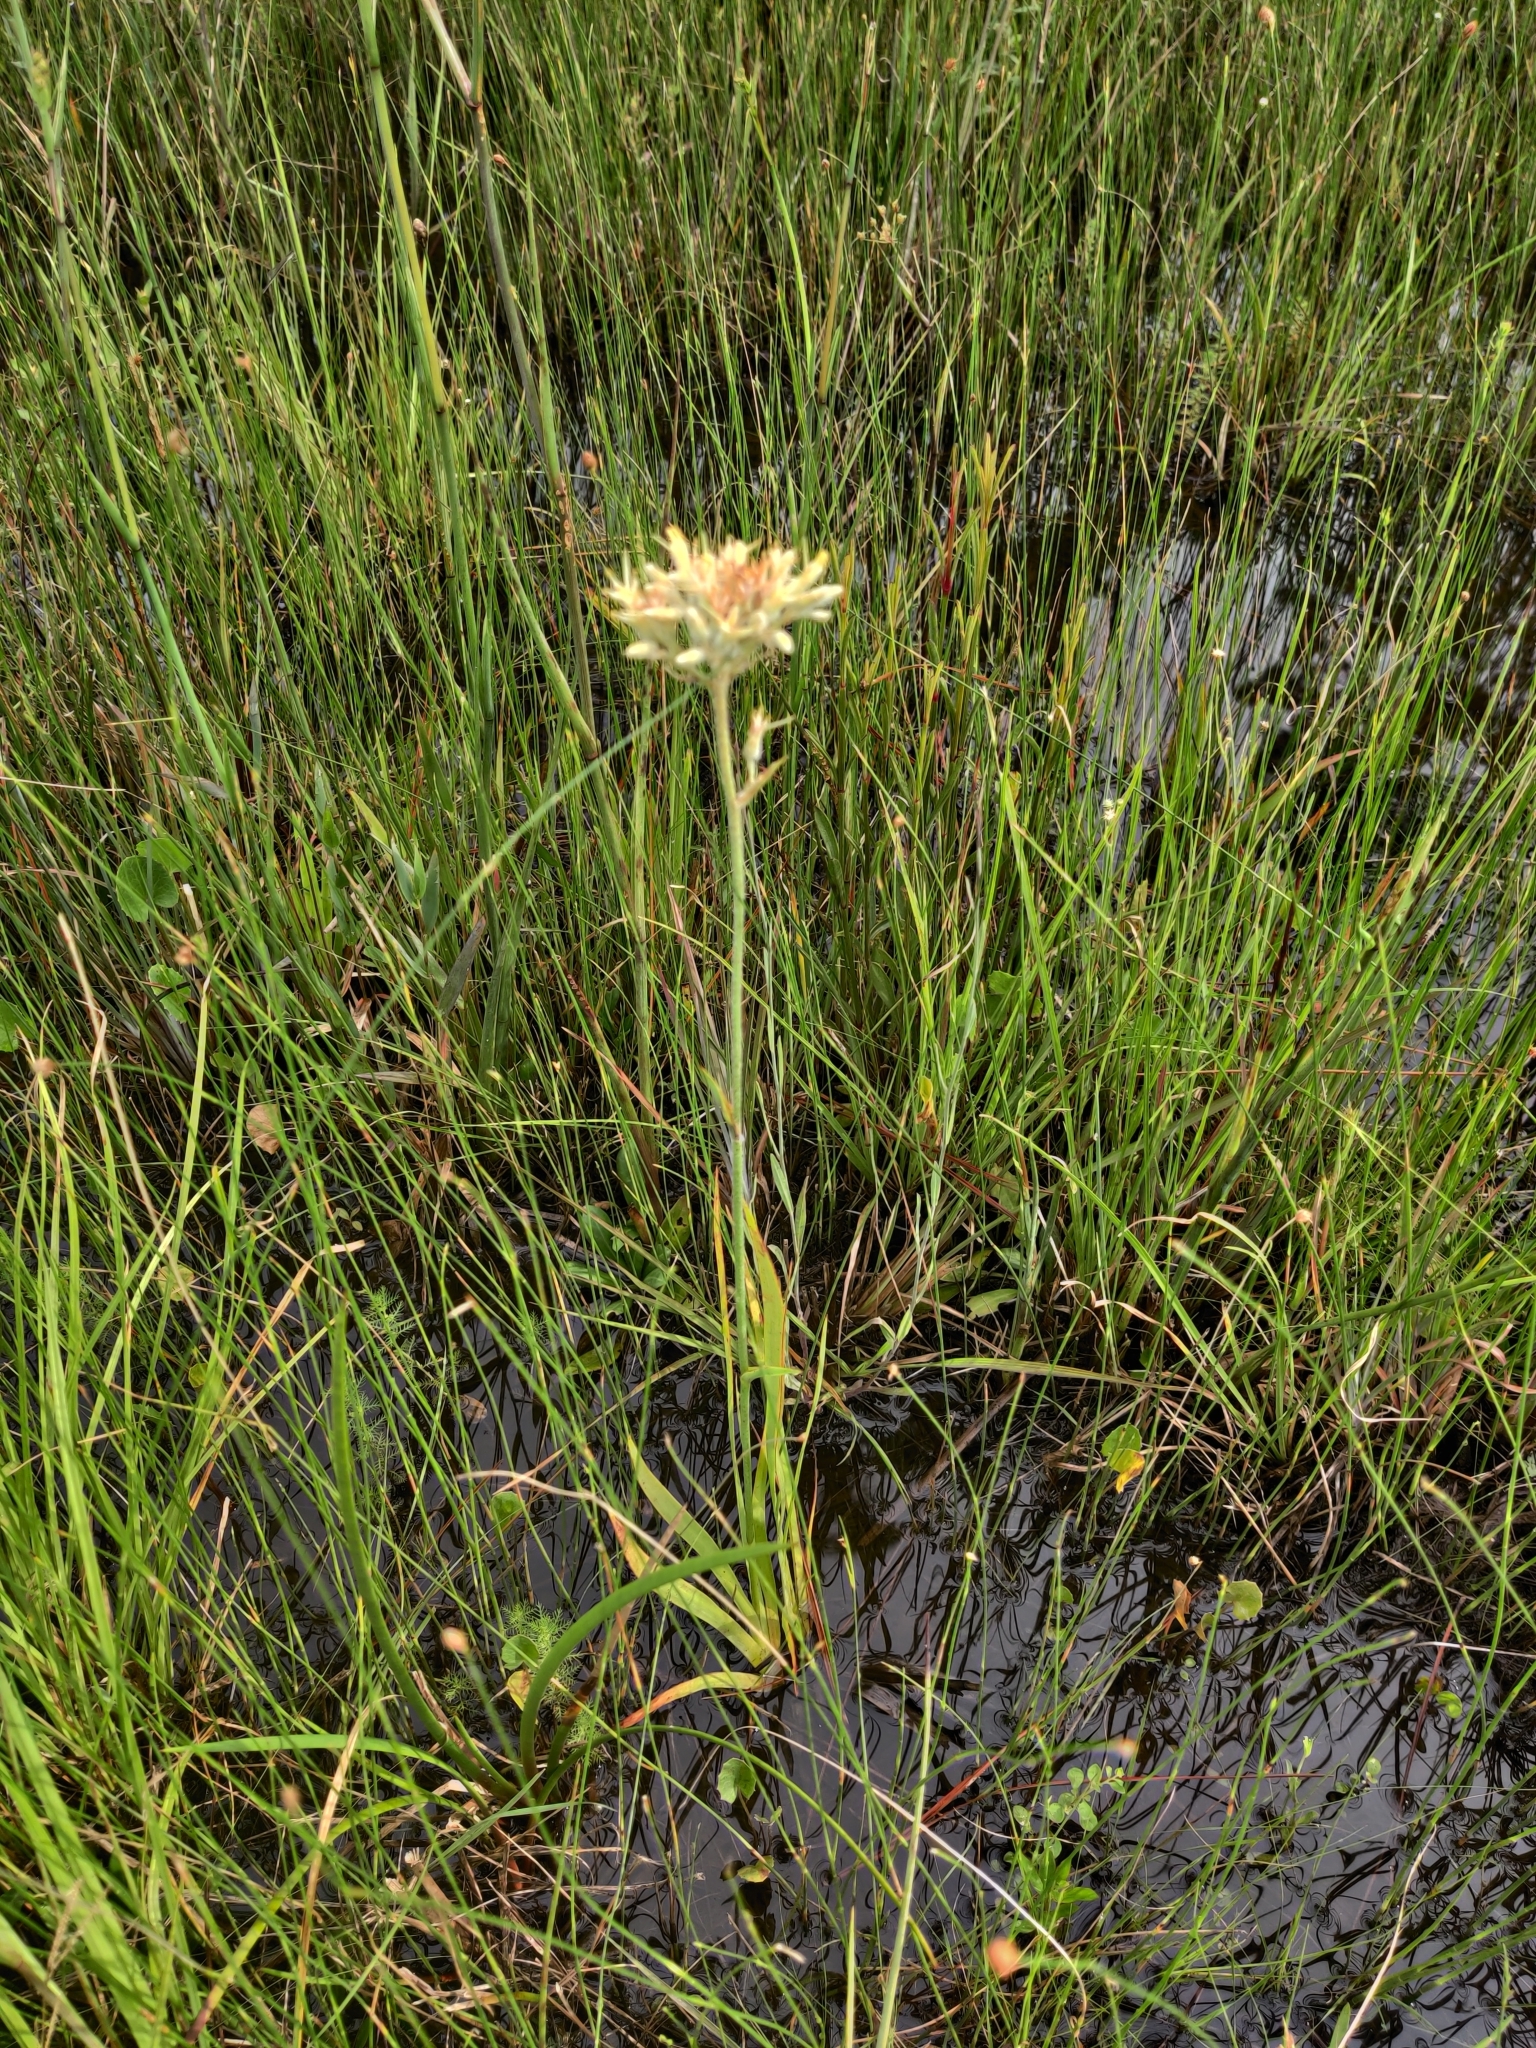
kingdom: Plantae
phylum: Tracheophyta
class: Liliopsida
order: Commelinales
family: Haemodoraceae
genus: Lachnanthes
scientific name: Lachnanthes caroliana
